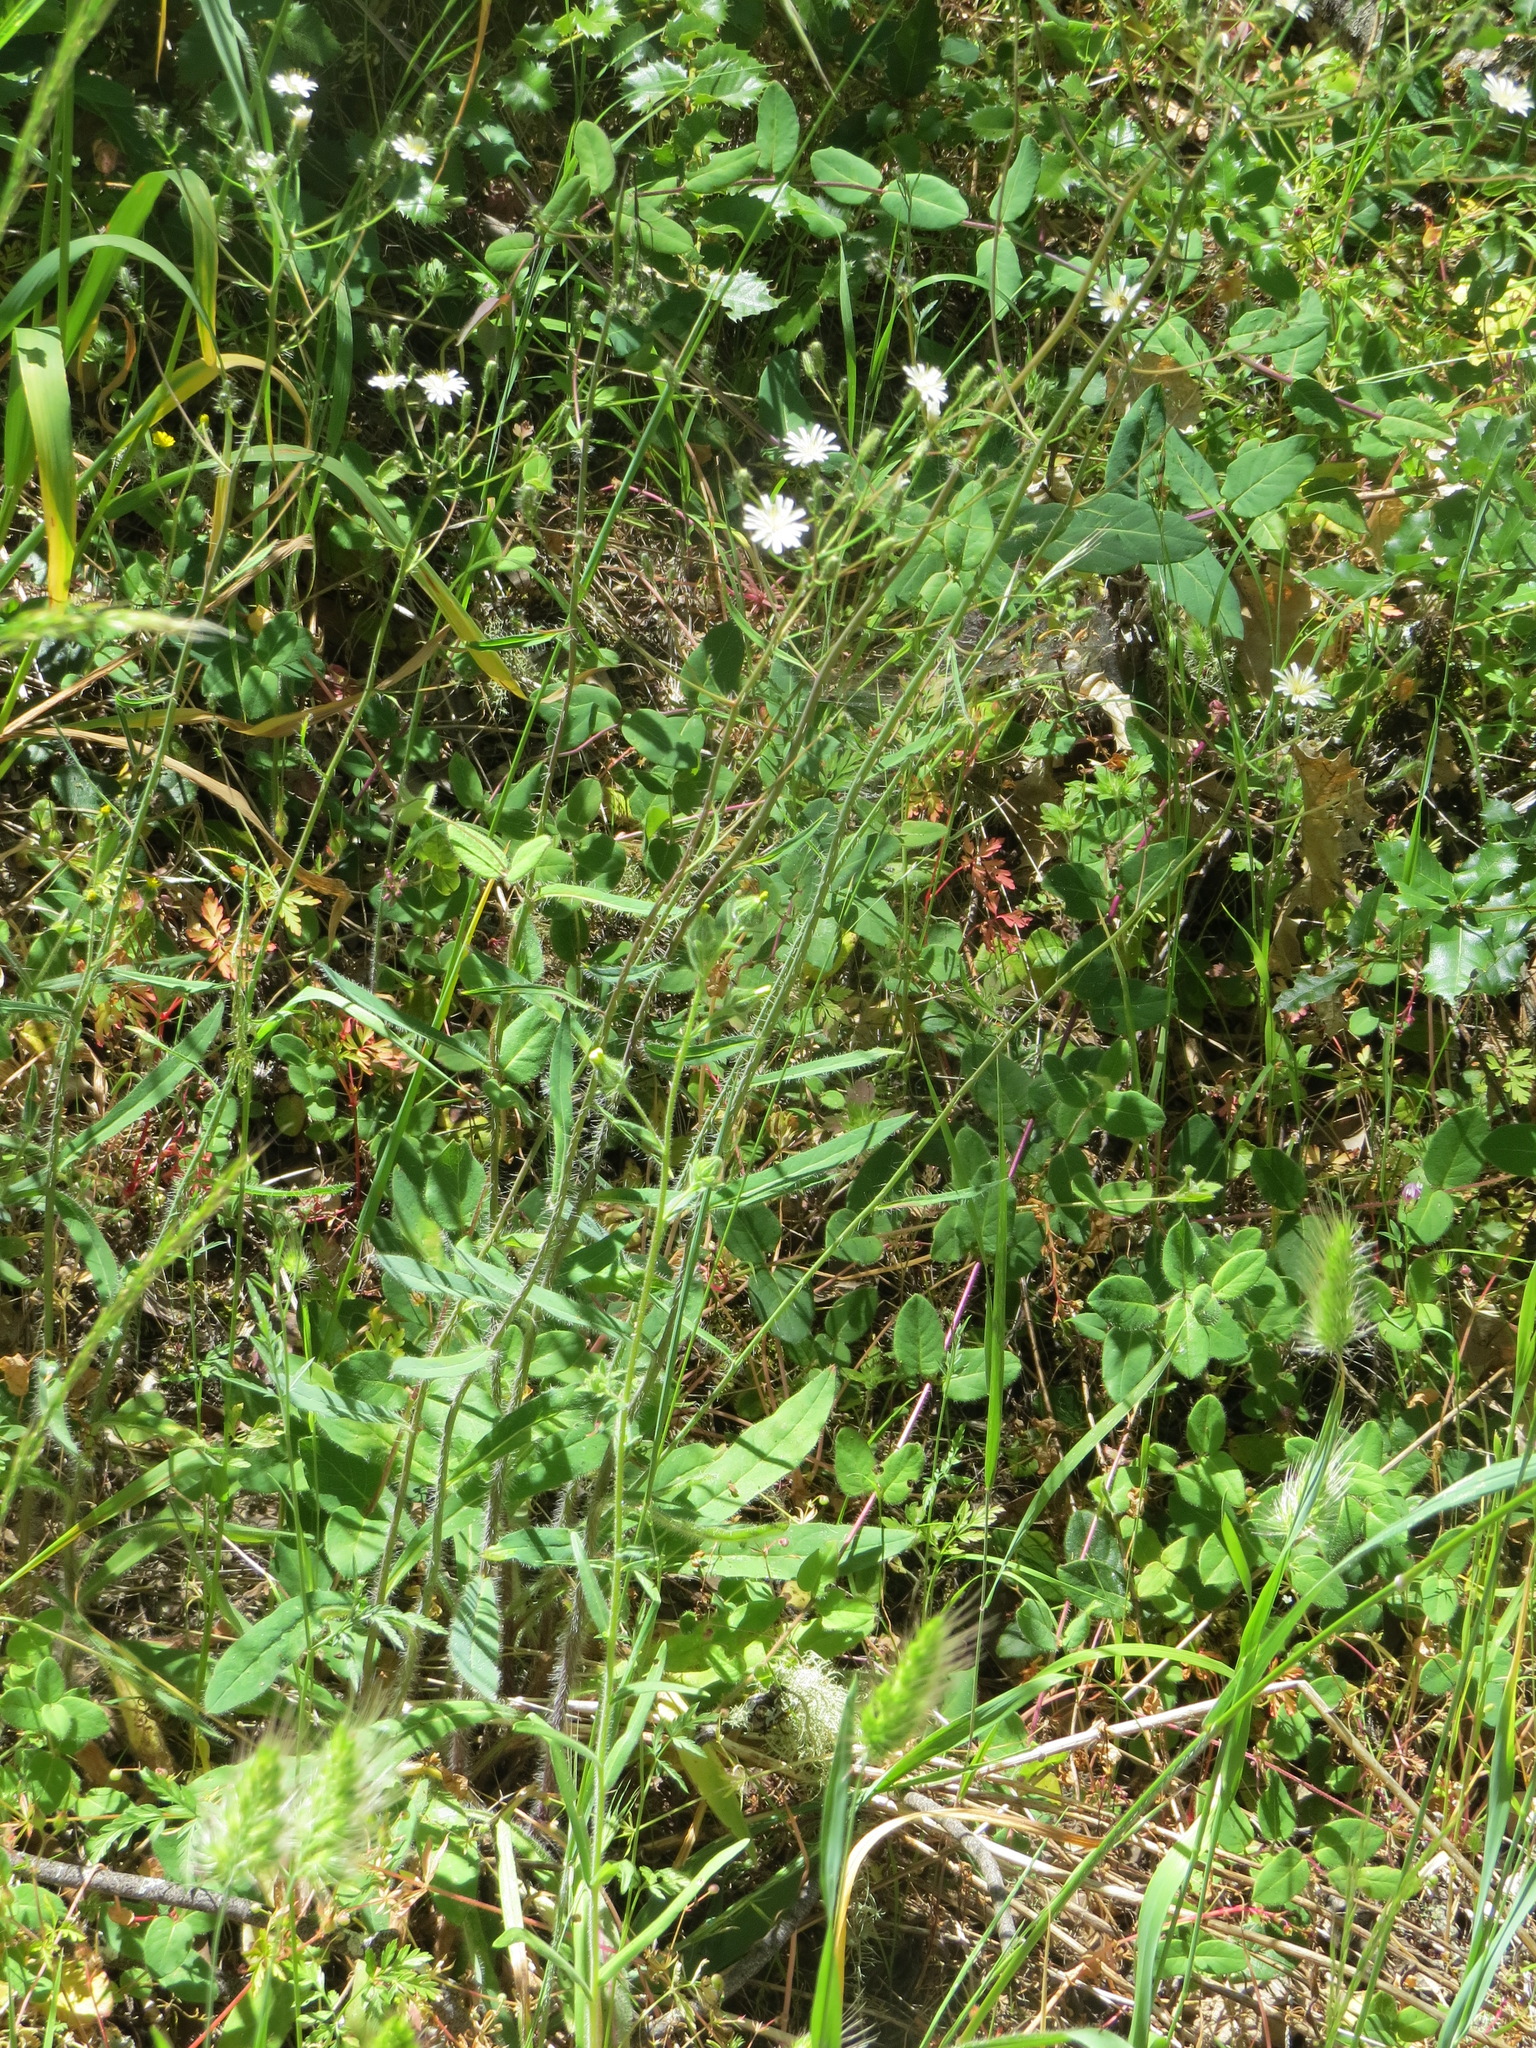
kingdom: Plantae
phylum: Tracheophyta
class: Magnoliopsida
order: Asterales
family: Asteraceae
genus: Hieracium
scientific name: Hieracium albiflorum
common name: White hawkweed
